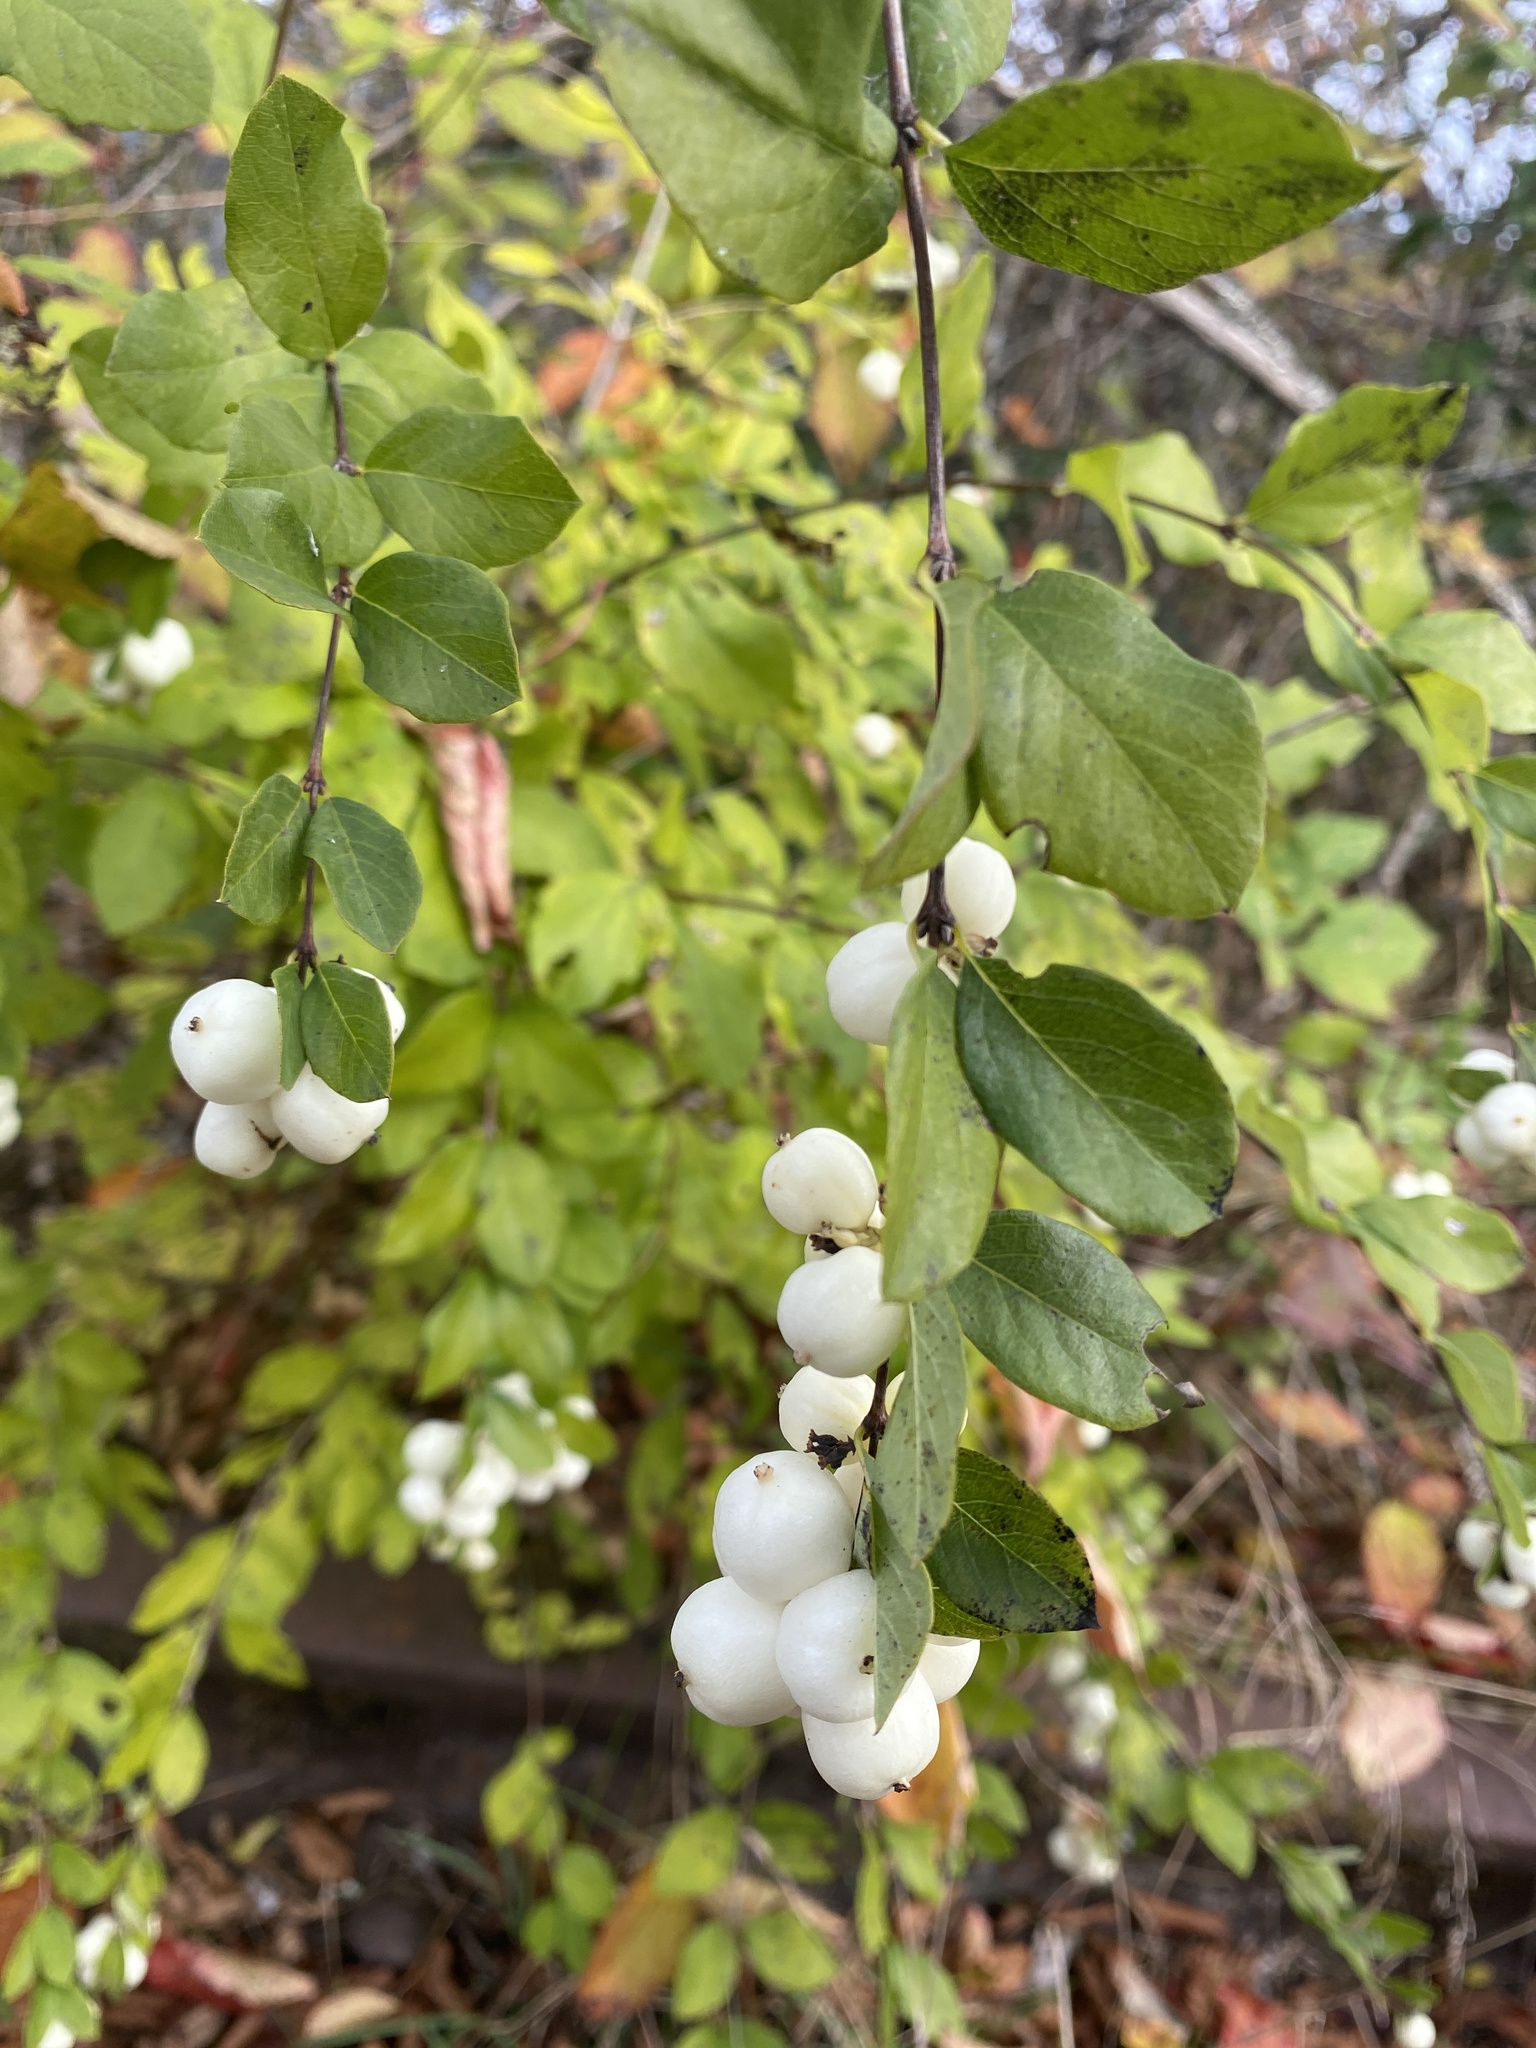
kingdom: Plantae
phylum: Tracheophyta
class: Magnoliopsida
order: Dipsacales
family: Caprifoliaceae
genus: Symphoricarpos
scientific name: Symphoricarpos albus
